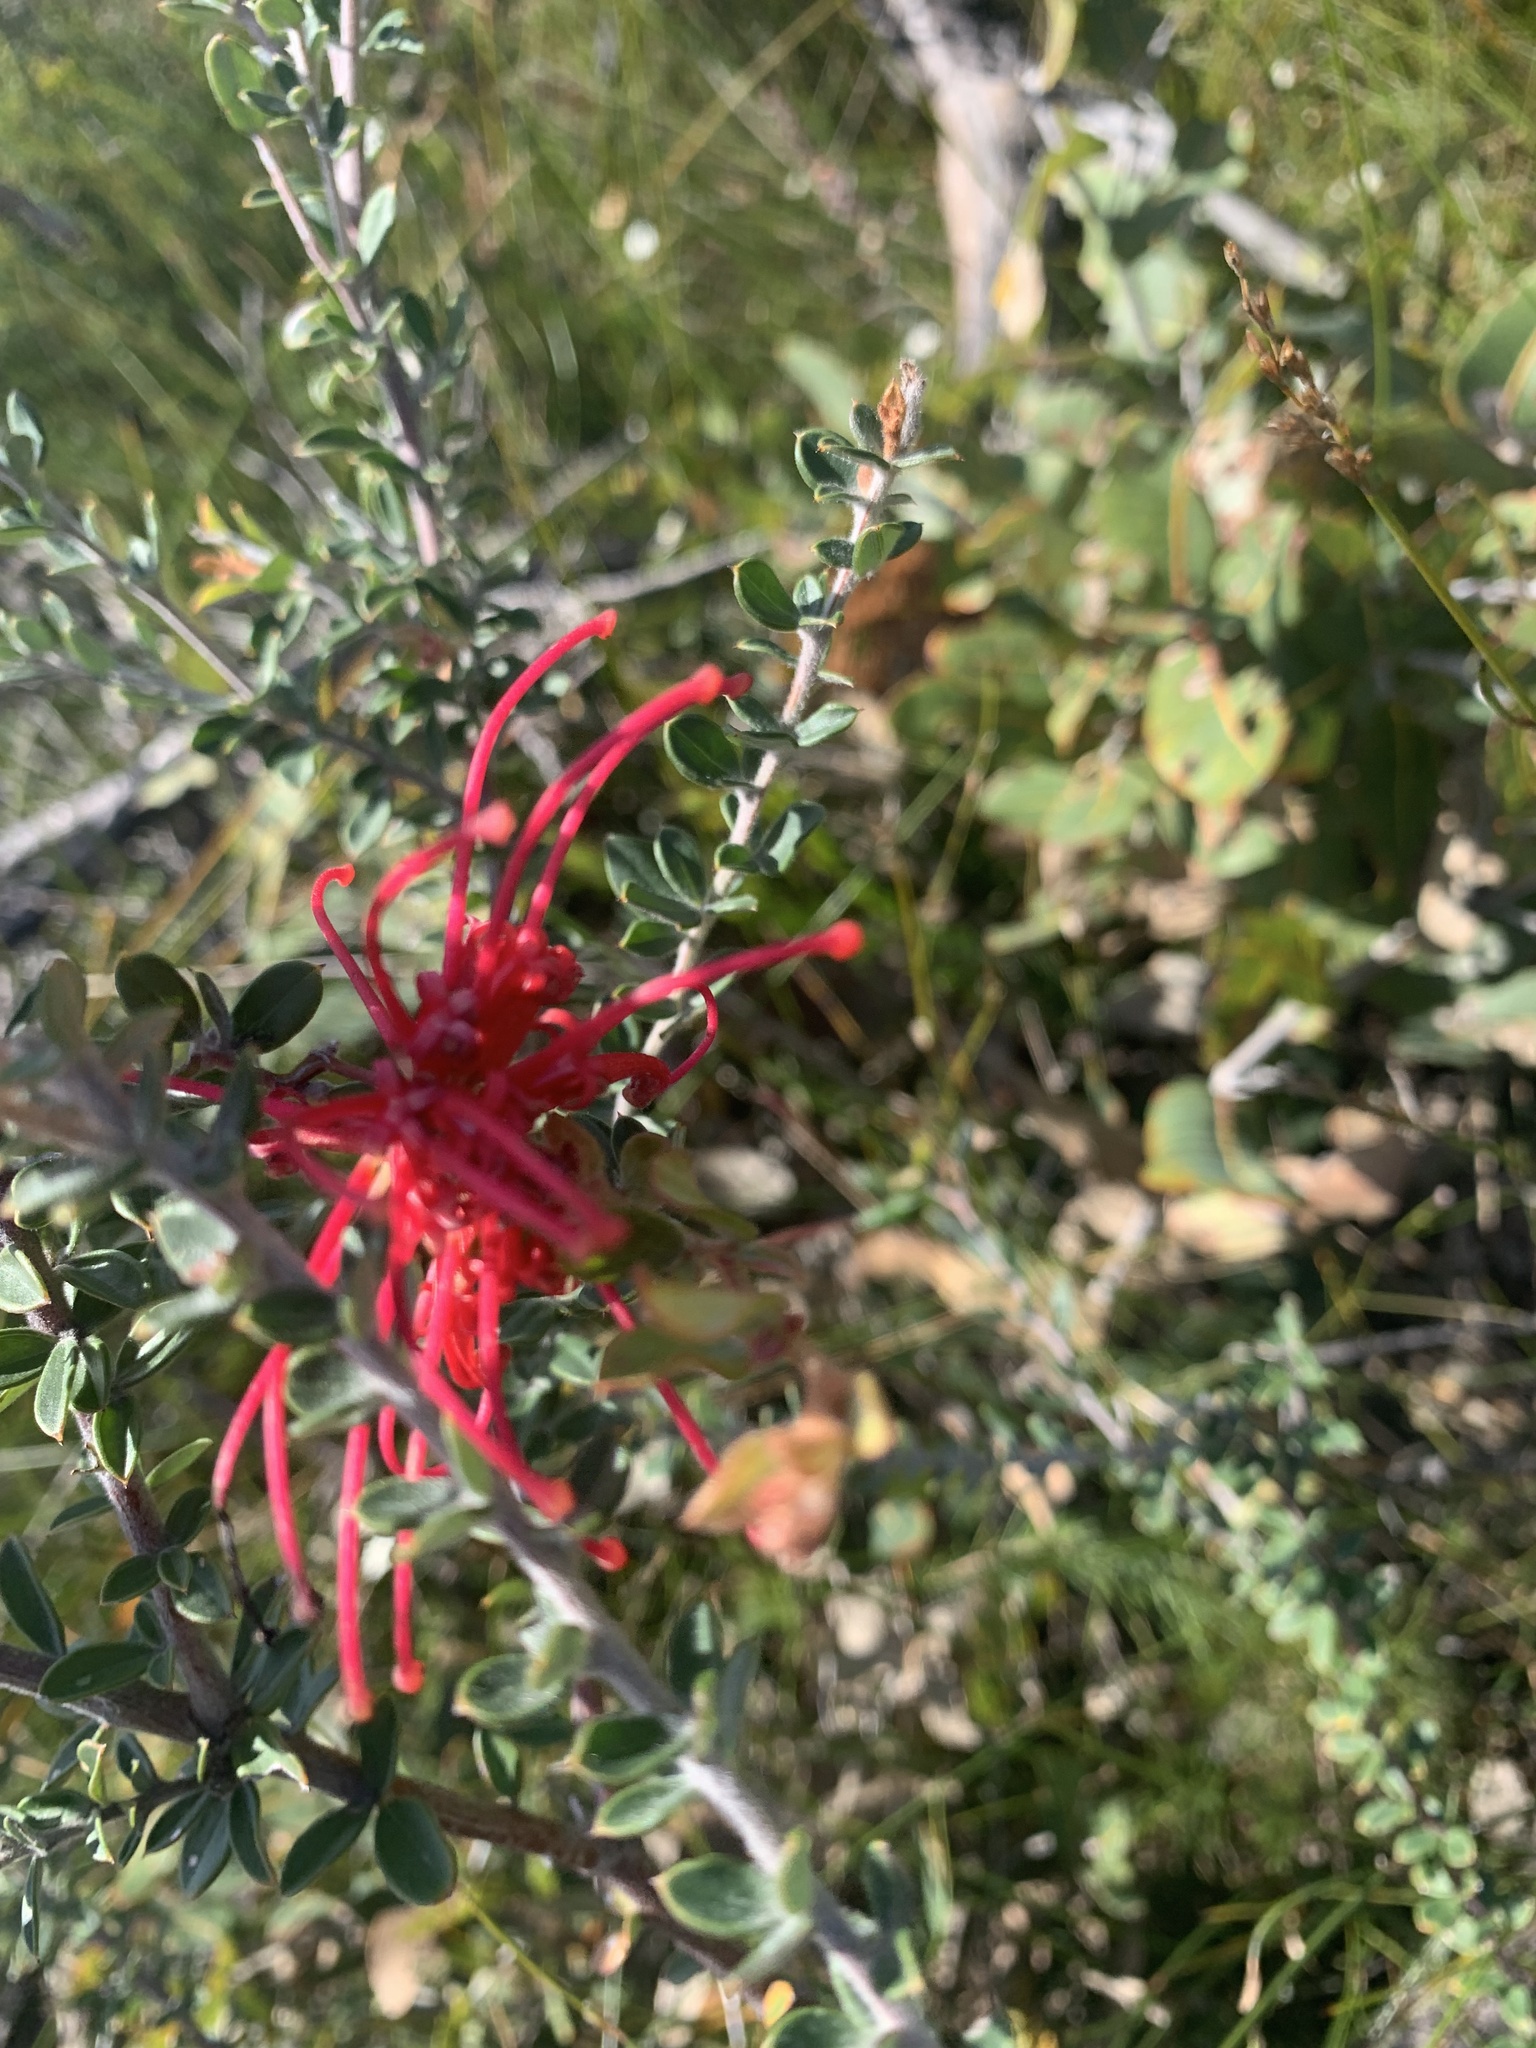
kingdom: Plantae
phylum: Tracheophyta
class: Magnoliopsida
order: Proteales
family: Proteaceae
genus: Grevillea
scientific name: Grevillea speciosa
